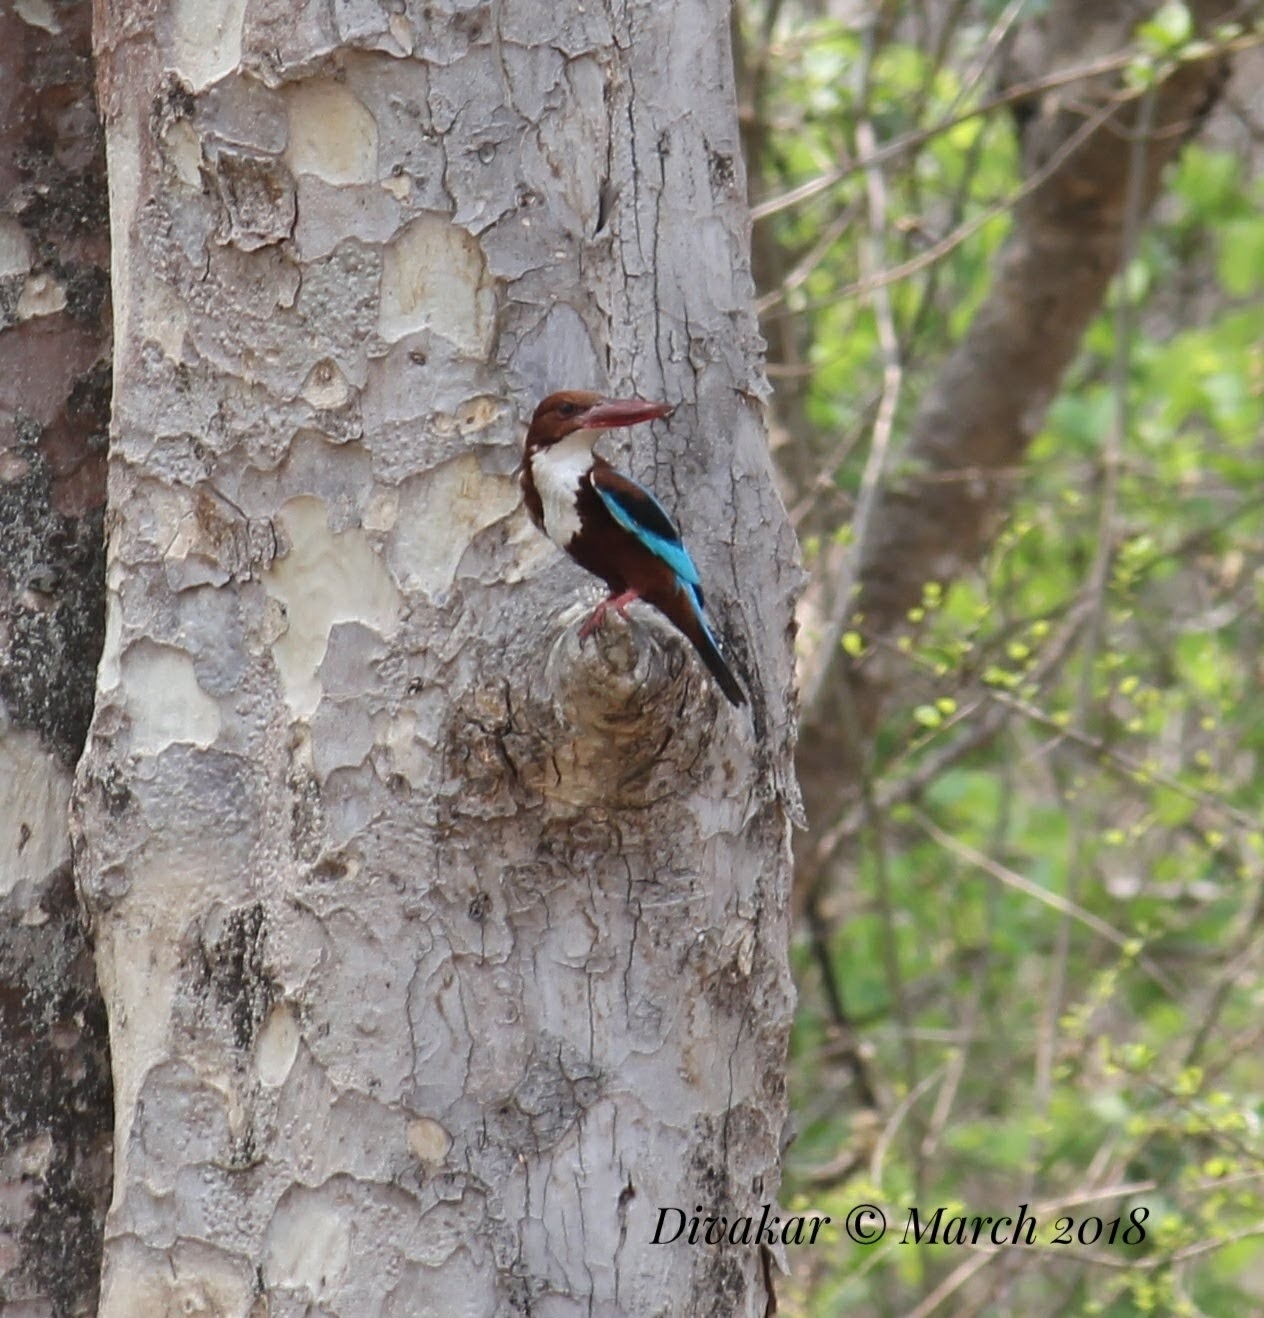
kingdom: Animalia
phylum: Chordata
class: Aves
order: Coraciiformes
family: Alcedinidae
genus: Halcyon
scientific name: Halcyon smyrnensis
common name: White-throated kingfisher
